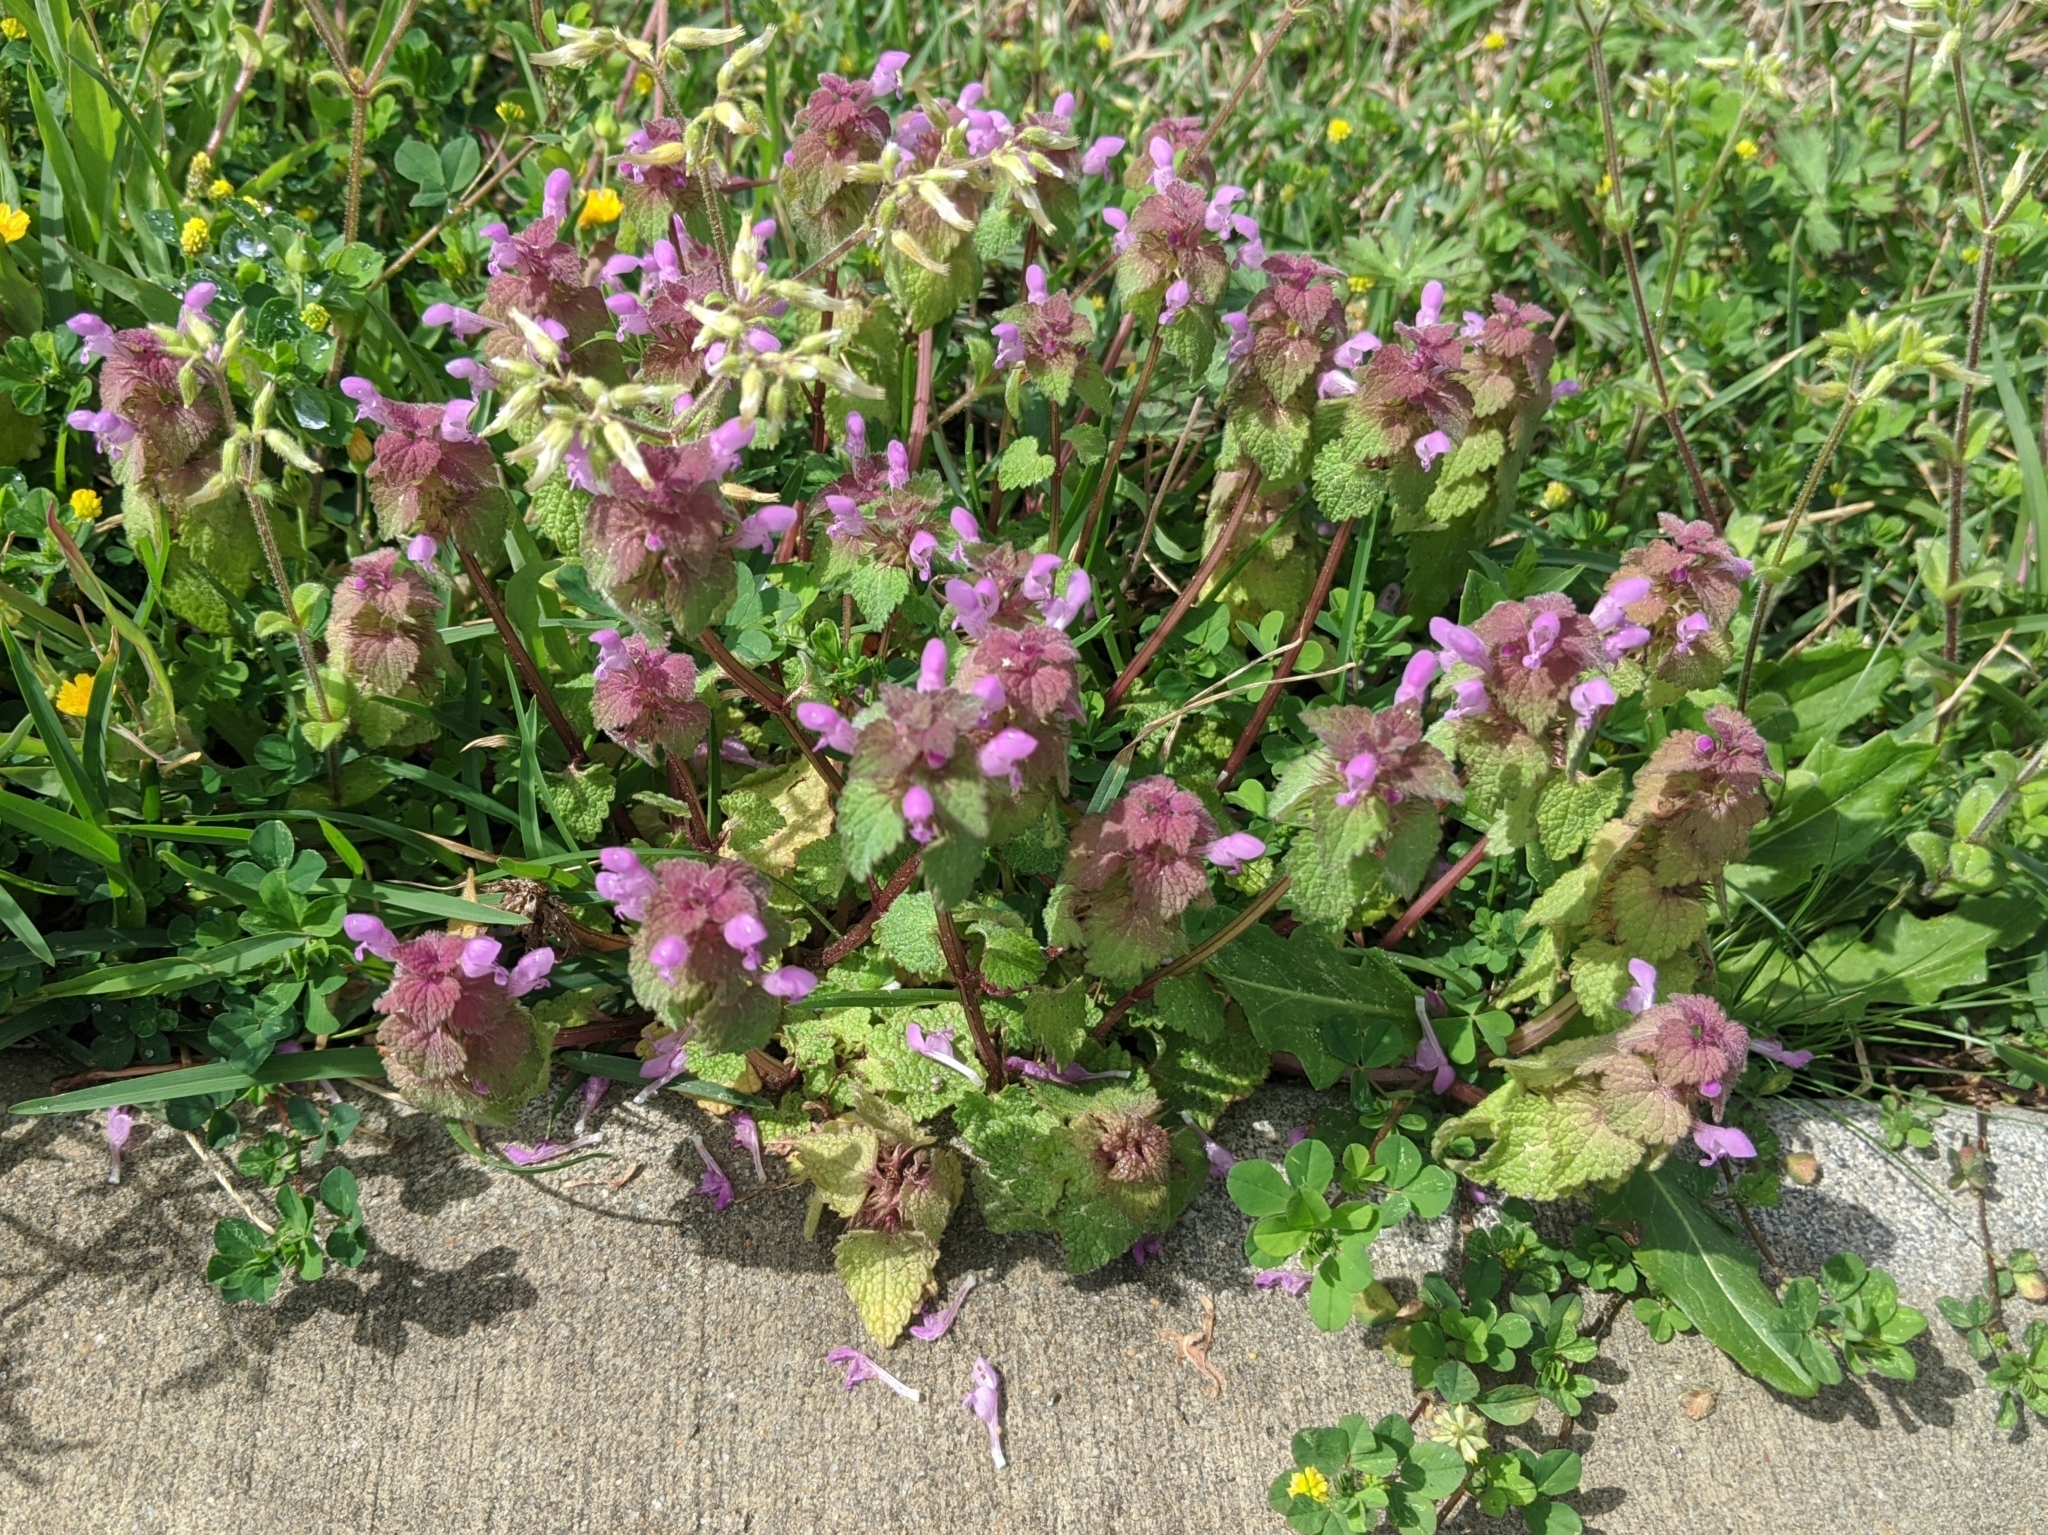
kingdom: Plantae
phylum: Tracheophyta
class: Magnoliopsida
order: Lamiales
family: Lamiaceae
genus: Lamium
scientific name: Lamium purpureum
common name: Red dead-nettle
